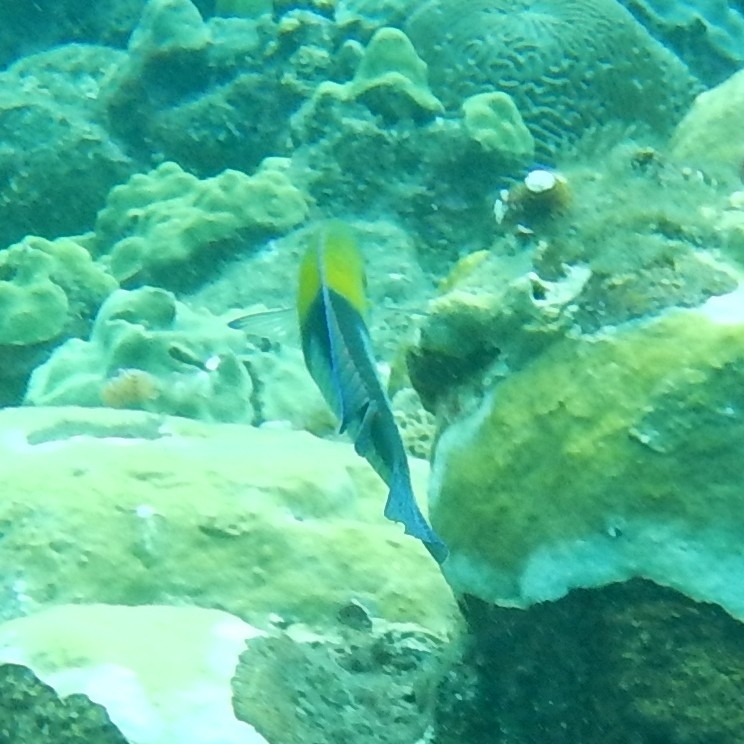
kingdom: Animalia
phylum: Chordata
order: Perciformes
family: Labridae
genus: Halichoeres
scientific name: Halichoeres garnoti
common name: Yellowhead wrasse
